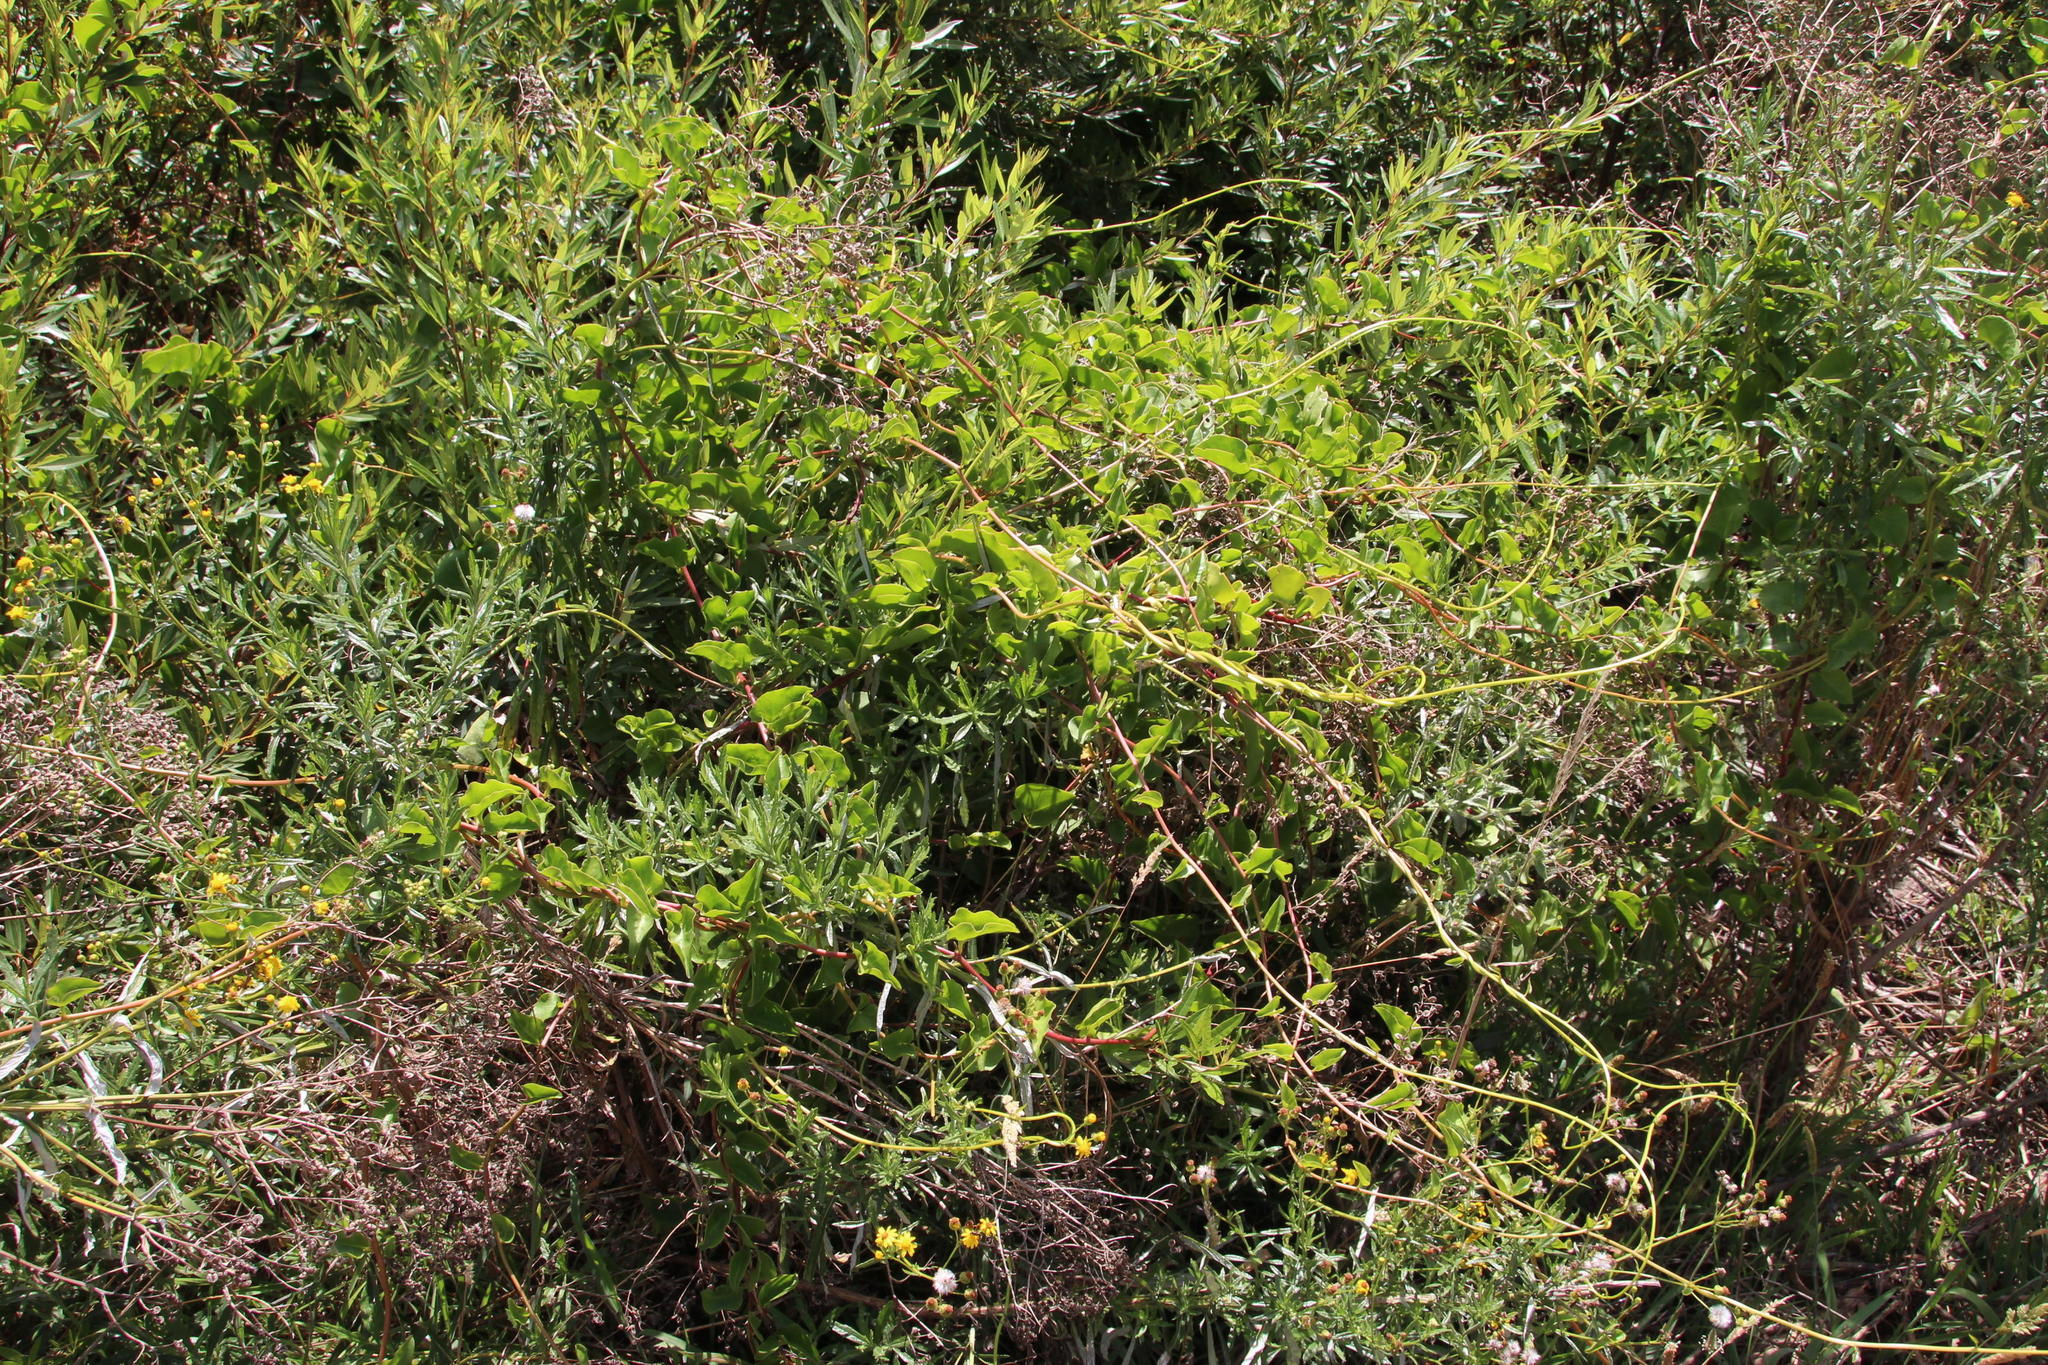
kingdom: Plantae
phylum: Tracheophyta
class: Magnoliopsida
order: Caryophyllales
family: Basellaceae
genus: Anredera
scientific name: Anredera cordifolia
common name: Heartleaf madeiravine
